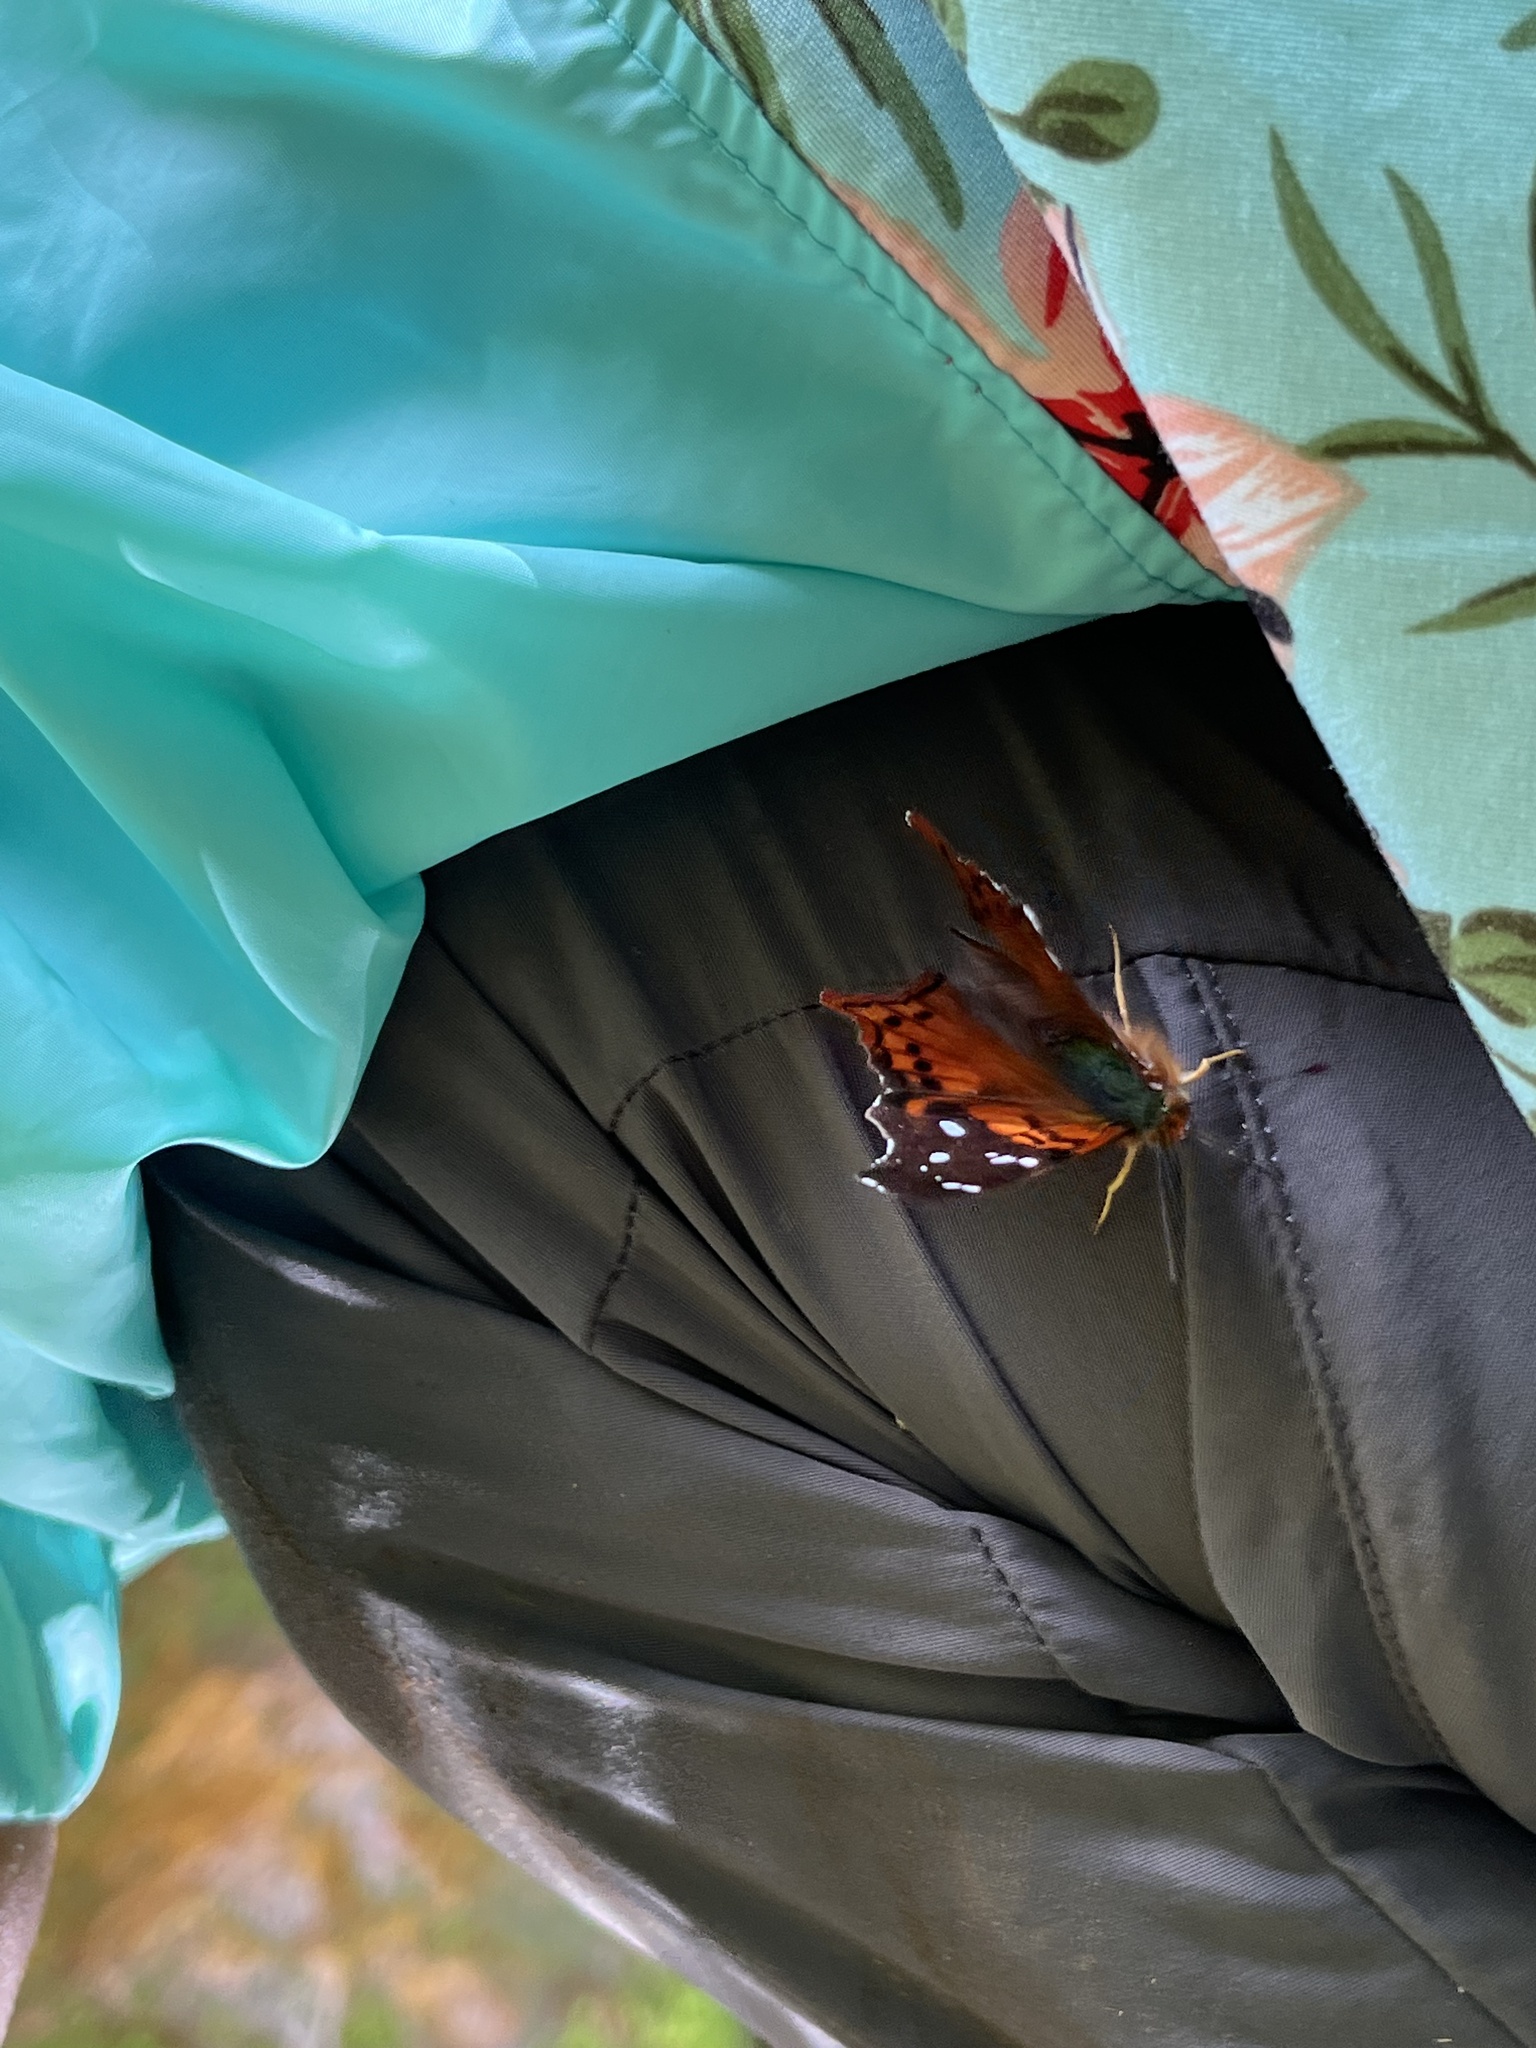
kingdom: Animalia
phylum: Arthropoda
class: Insecta
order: Lepidoptera
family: Nymphalidae
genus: Hypanartia
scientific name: Hypanartia kefersteini
